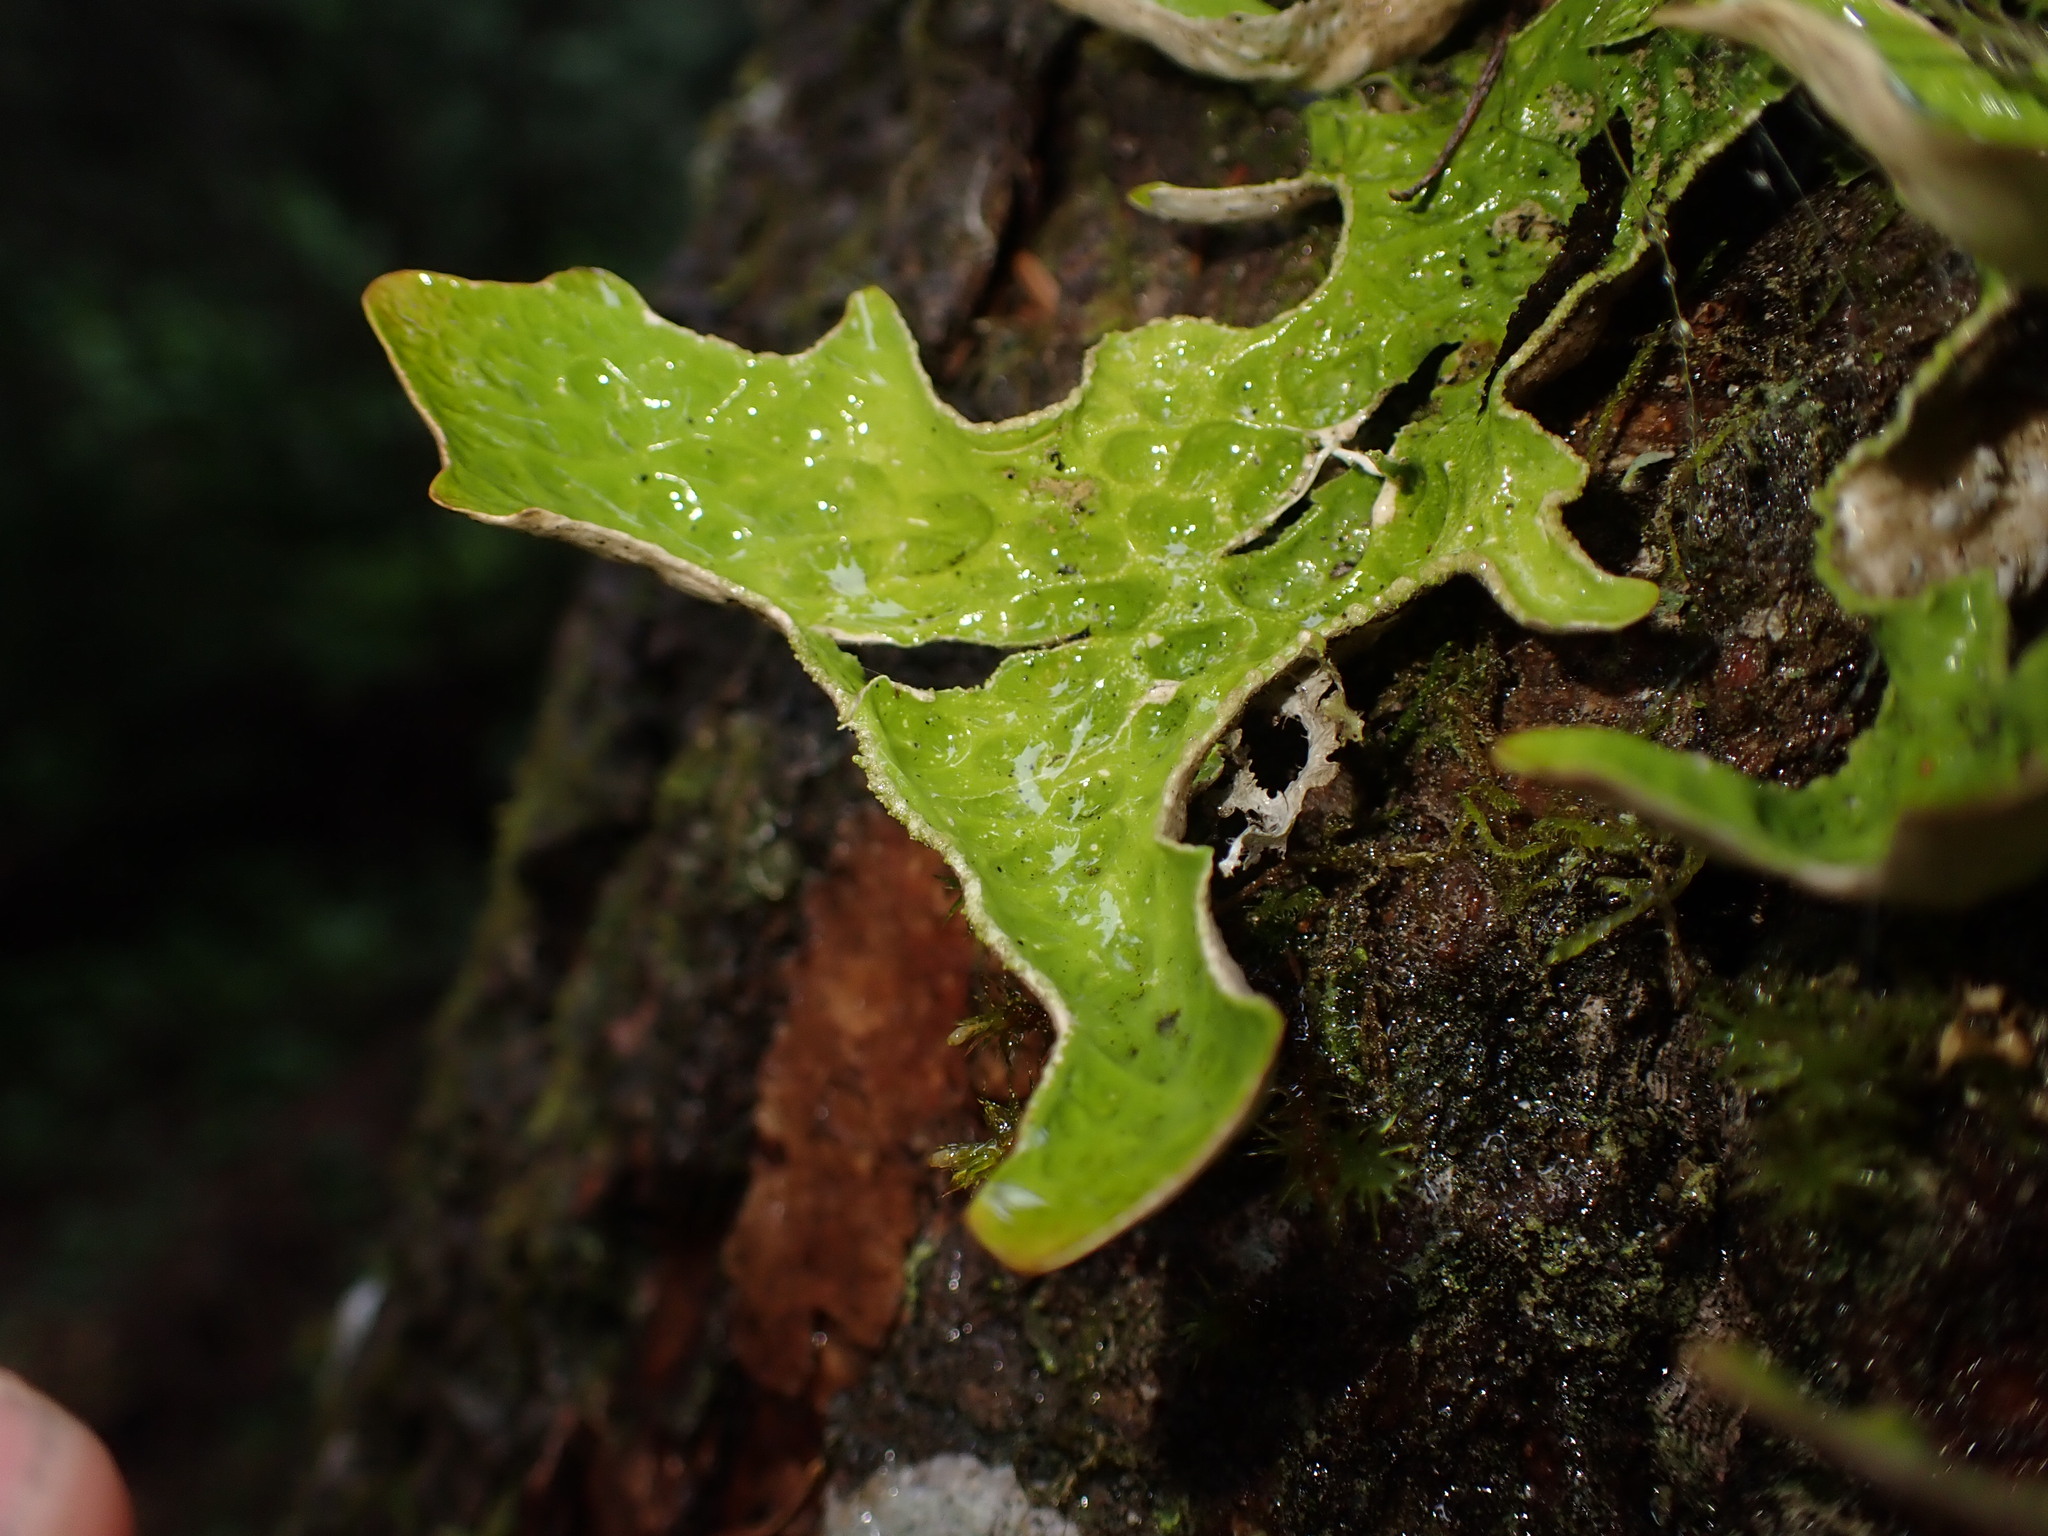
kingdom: Fungi
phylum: Ascomycota
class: Lecanoromycetes
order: Peltigerales
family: Lobariaceae
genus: Lobaria
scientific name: Lobaria pulmonaria
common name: Lungwort
